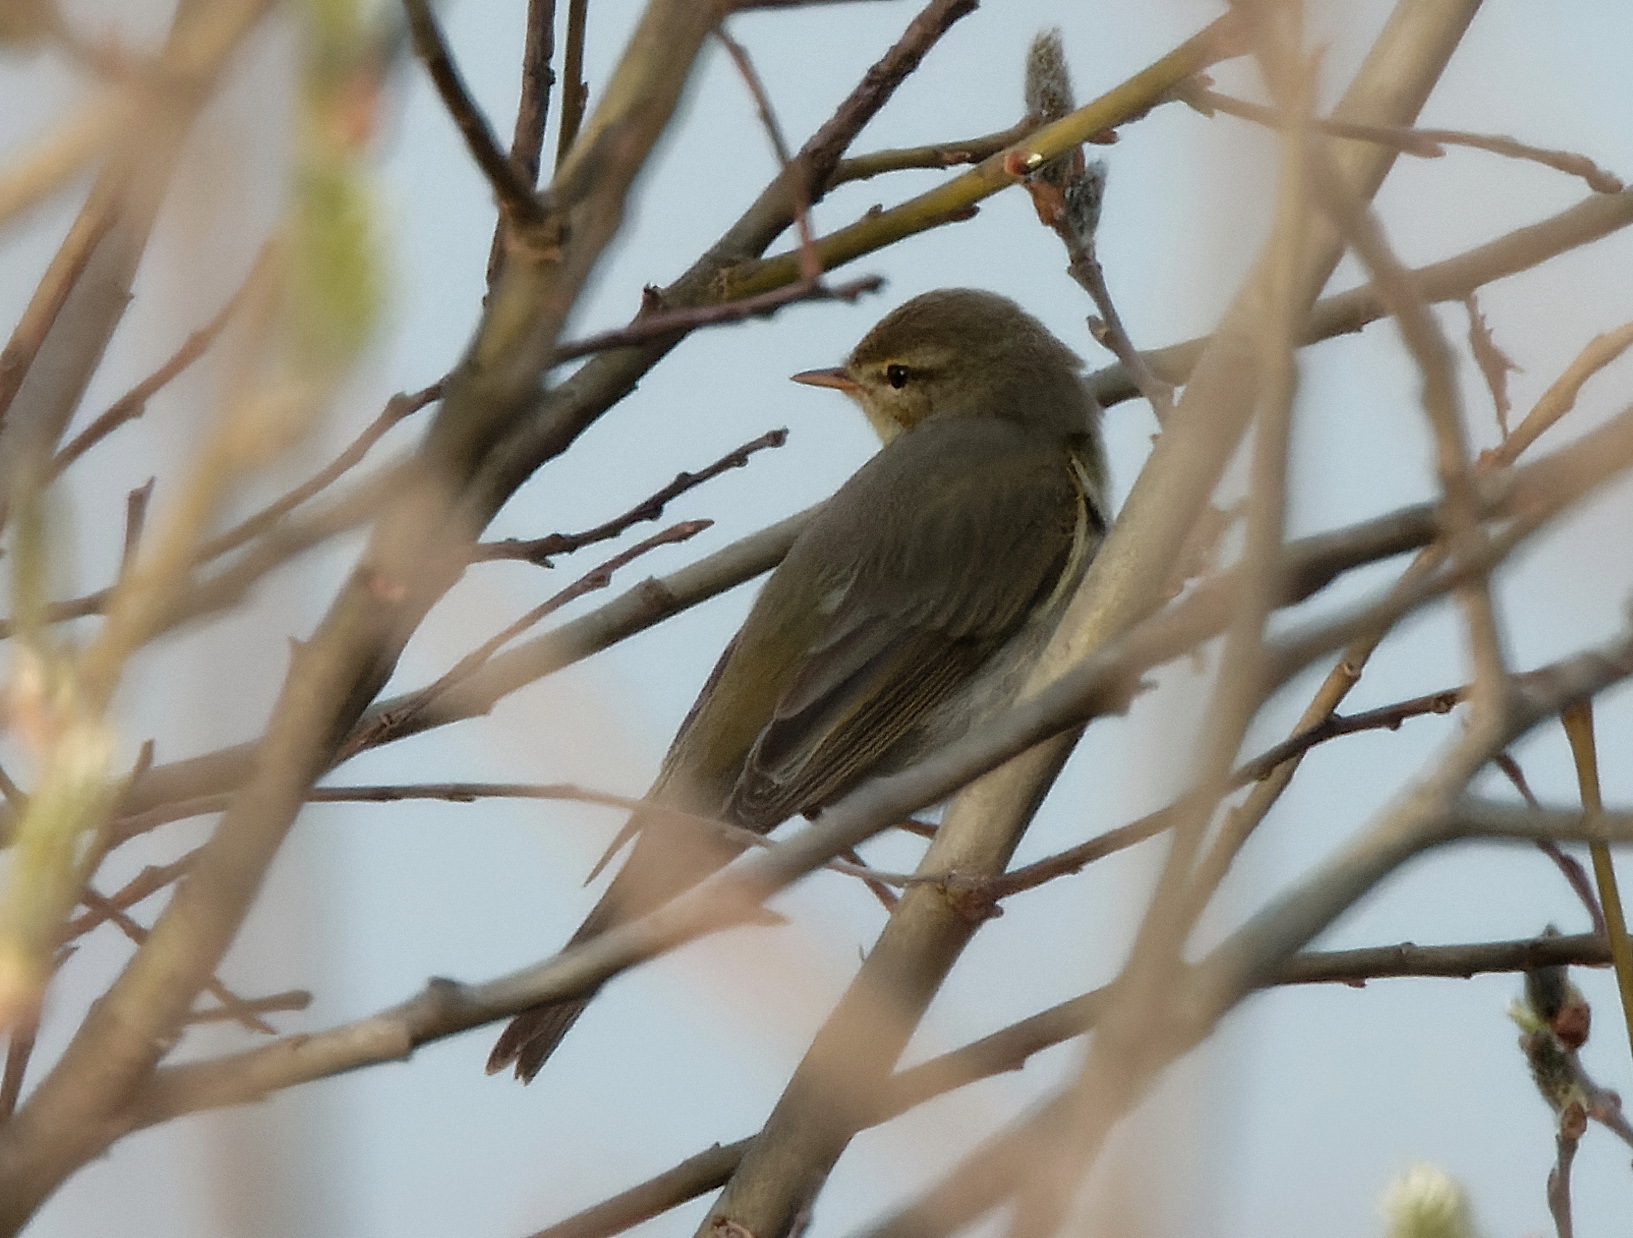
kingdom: Animalia
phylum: Chordata
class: Aves
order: Passeriformes
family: Phylloscopidae
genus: Phylloscopus
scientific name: Phylloscopus trochilus
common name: Willow warbler
